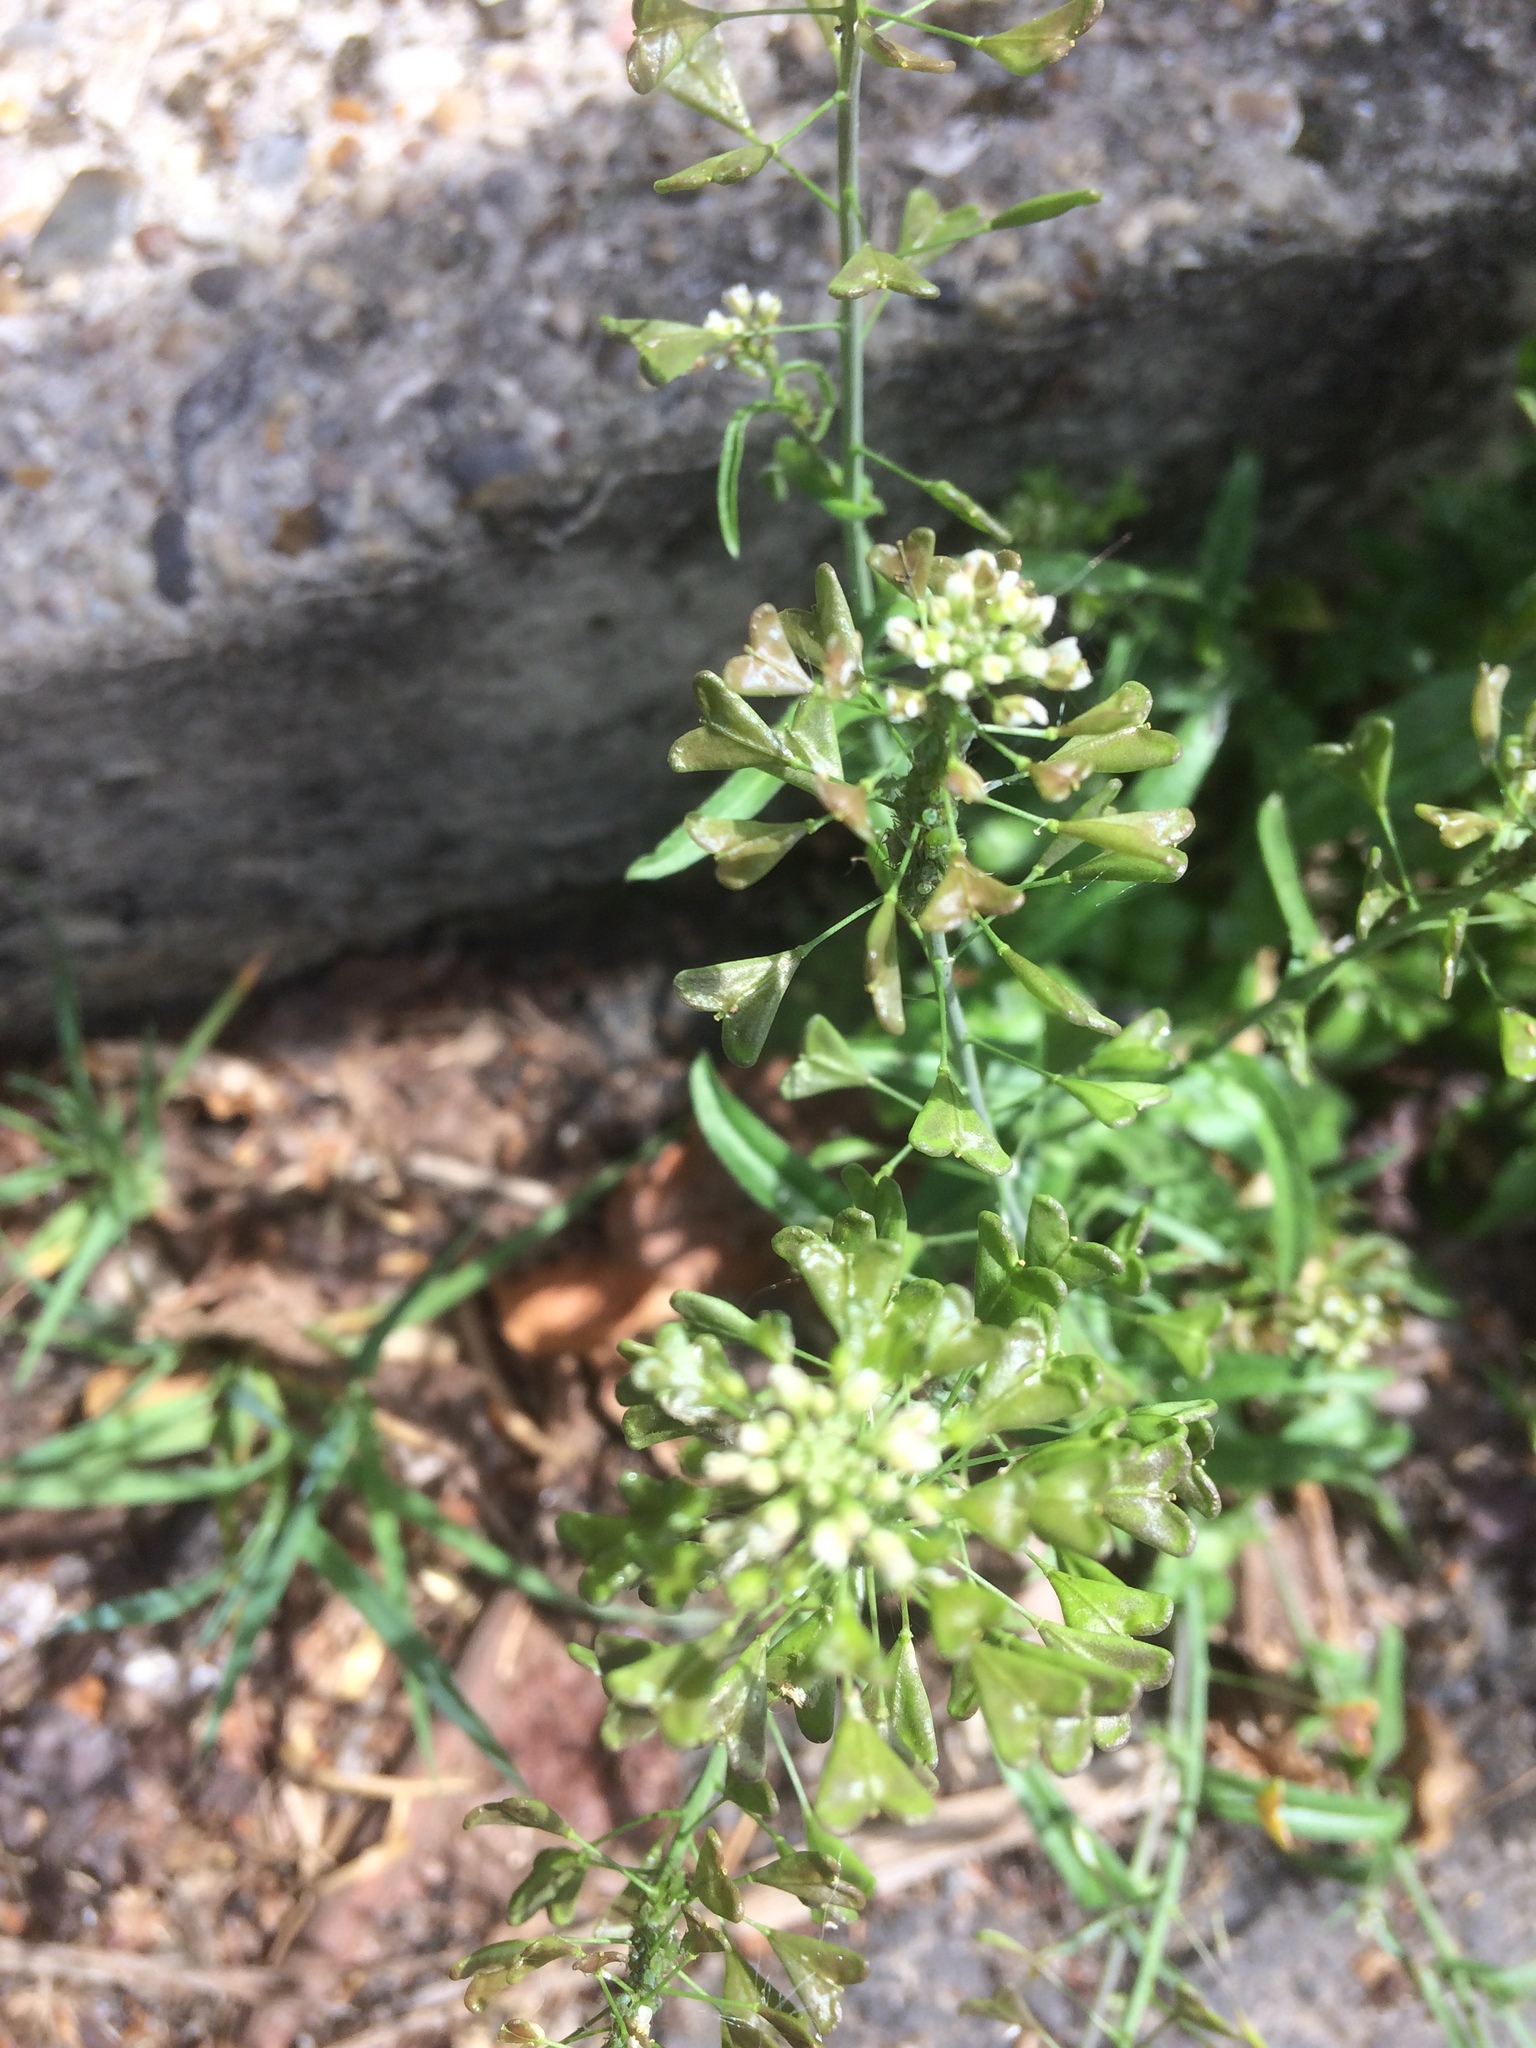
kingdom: Plantae
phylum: Tracheophyta
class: Magnoliopsida
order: Brassicales
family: Brassicaceae
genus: Capsella
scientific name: Capsella bursa-pastoris
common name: Shepherd's purse
